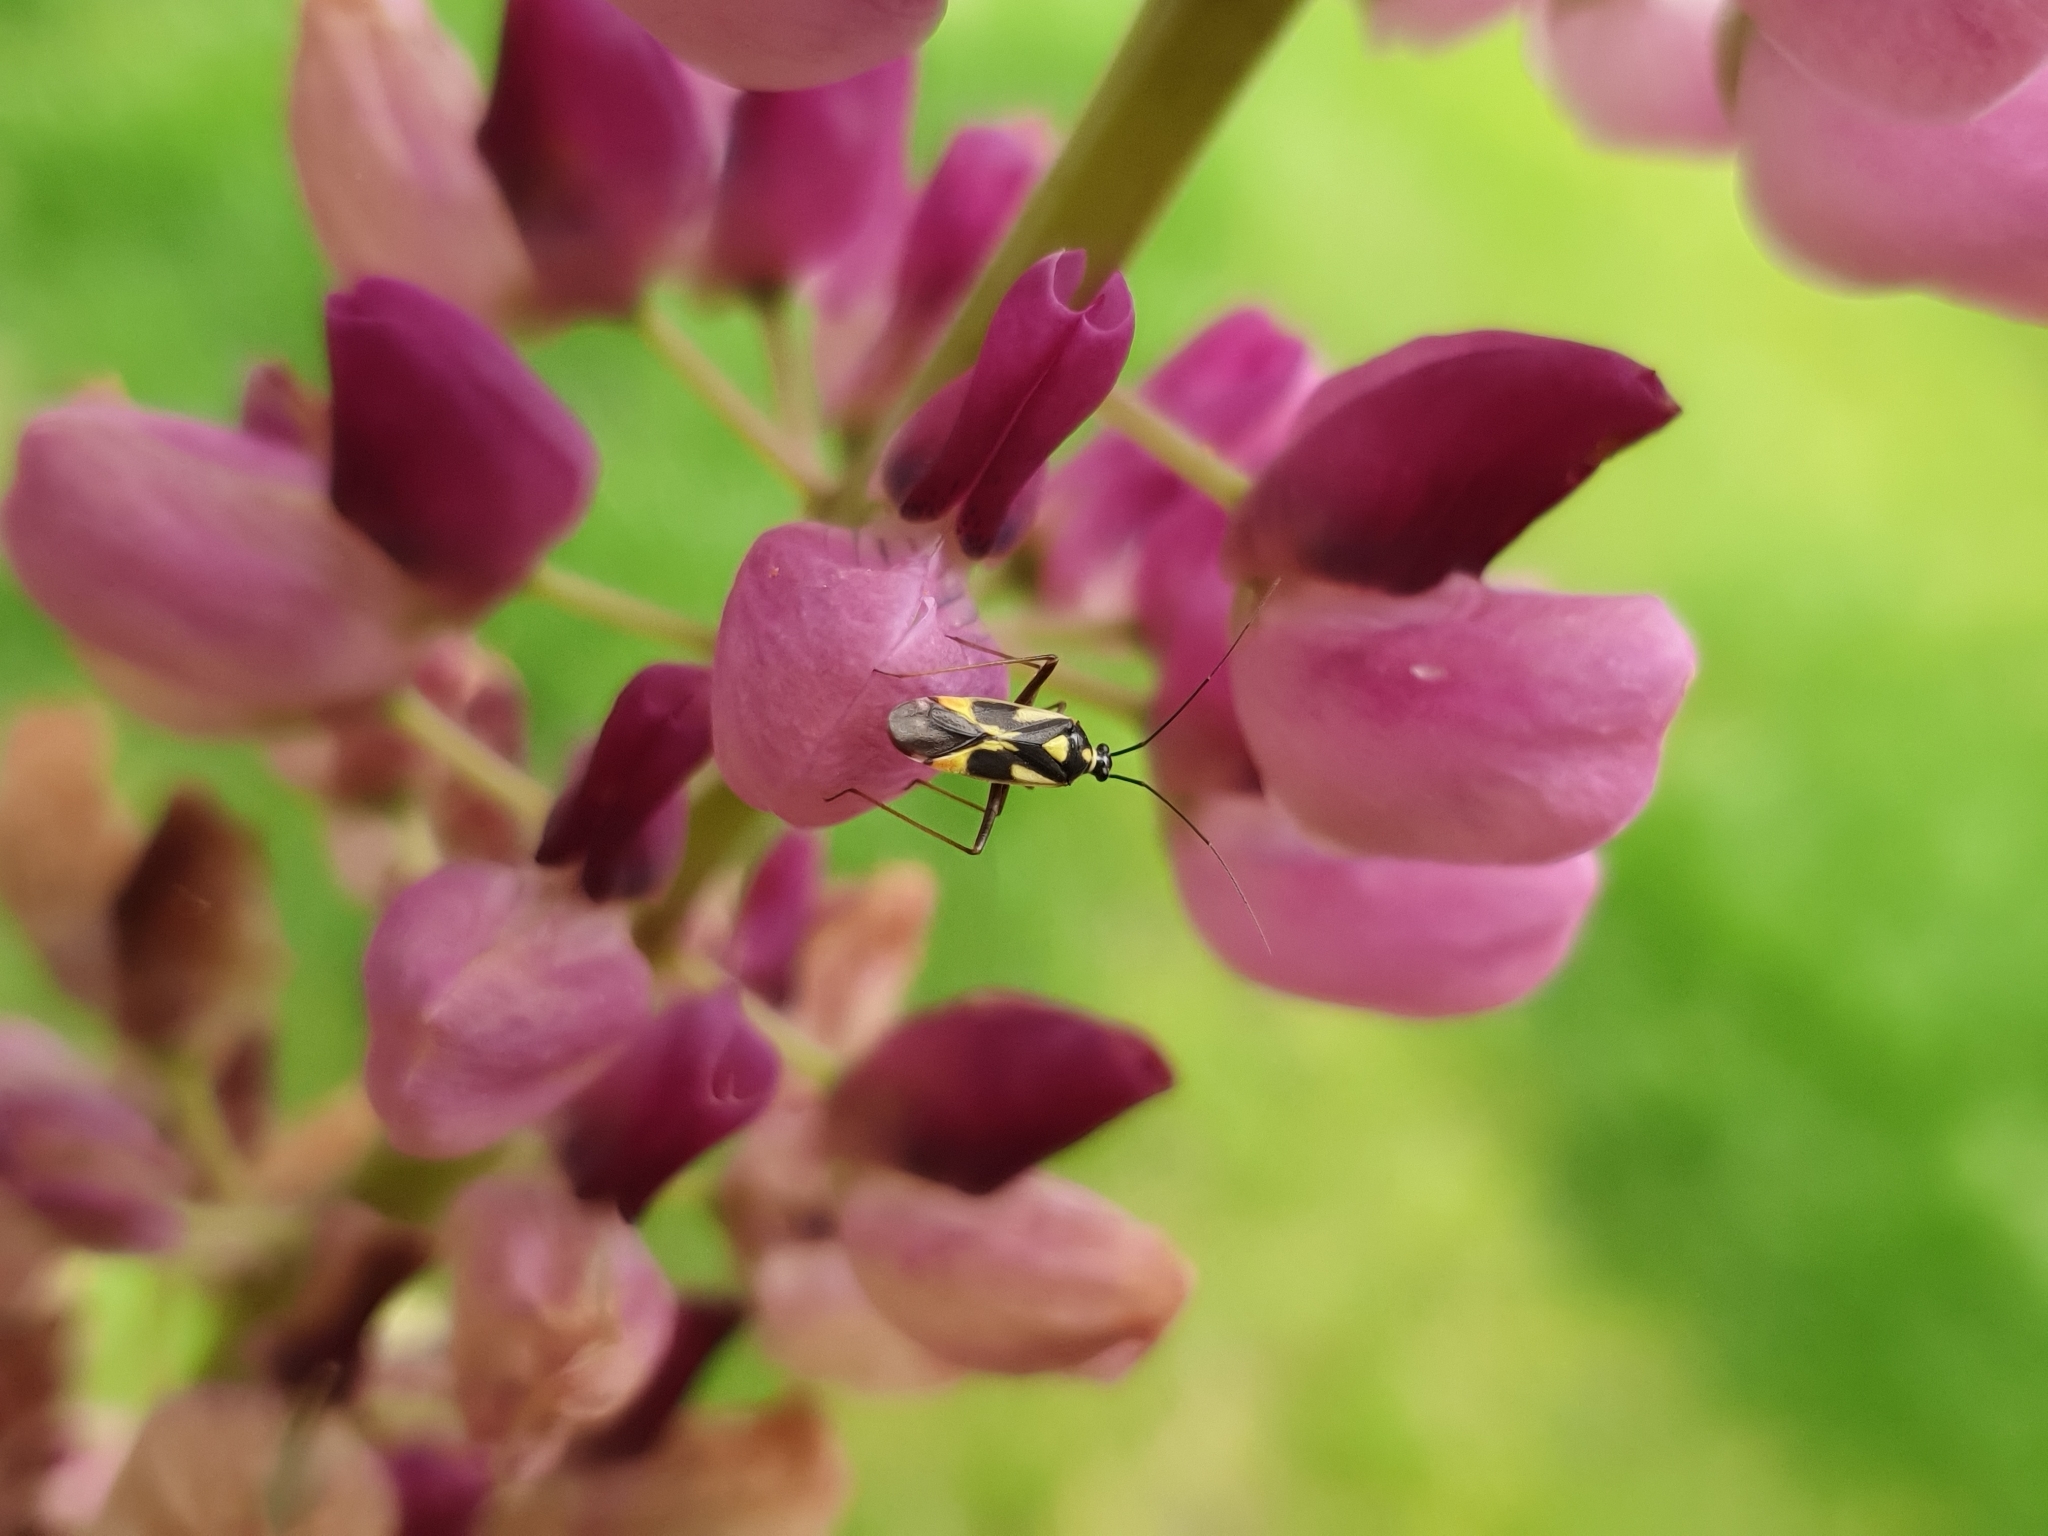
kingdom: Animalia
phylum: Arthropoda
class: Insecta
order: Hemiptera
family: Miridae
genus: Grypocoris
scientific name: Grypocoris stysi
